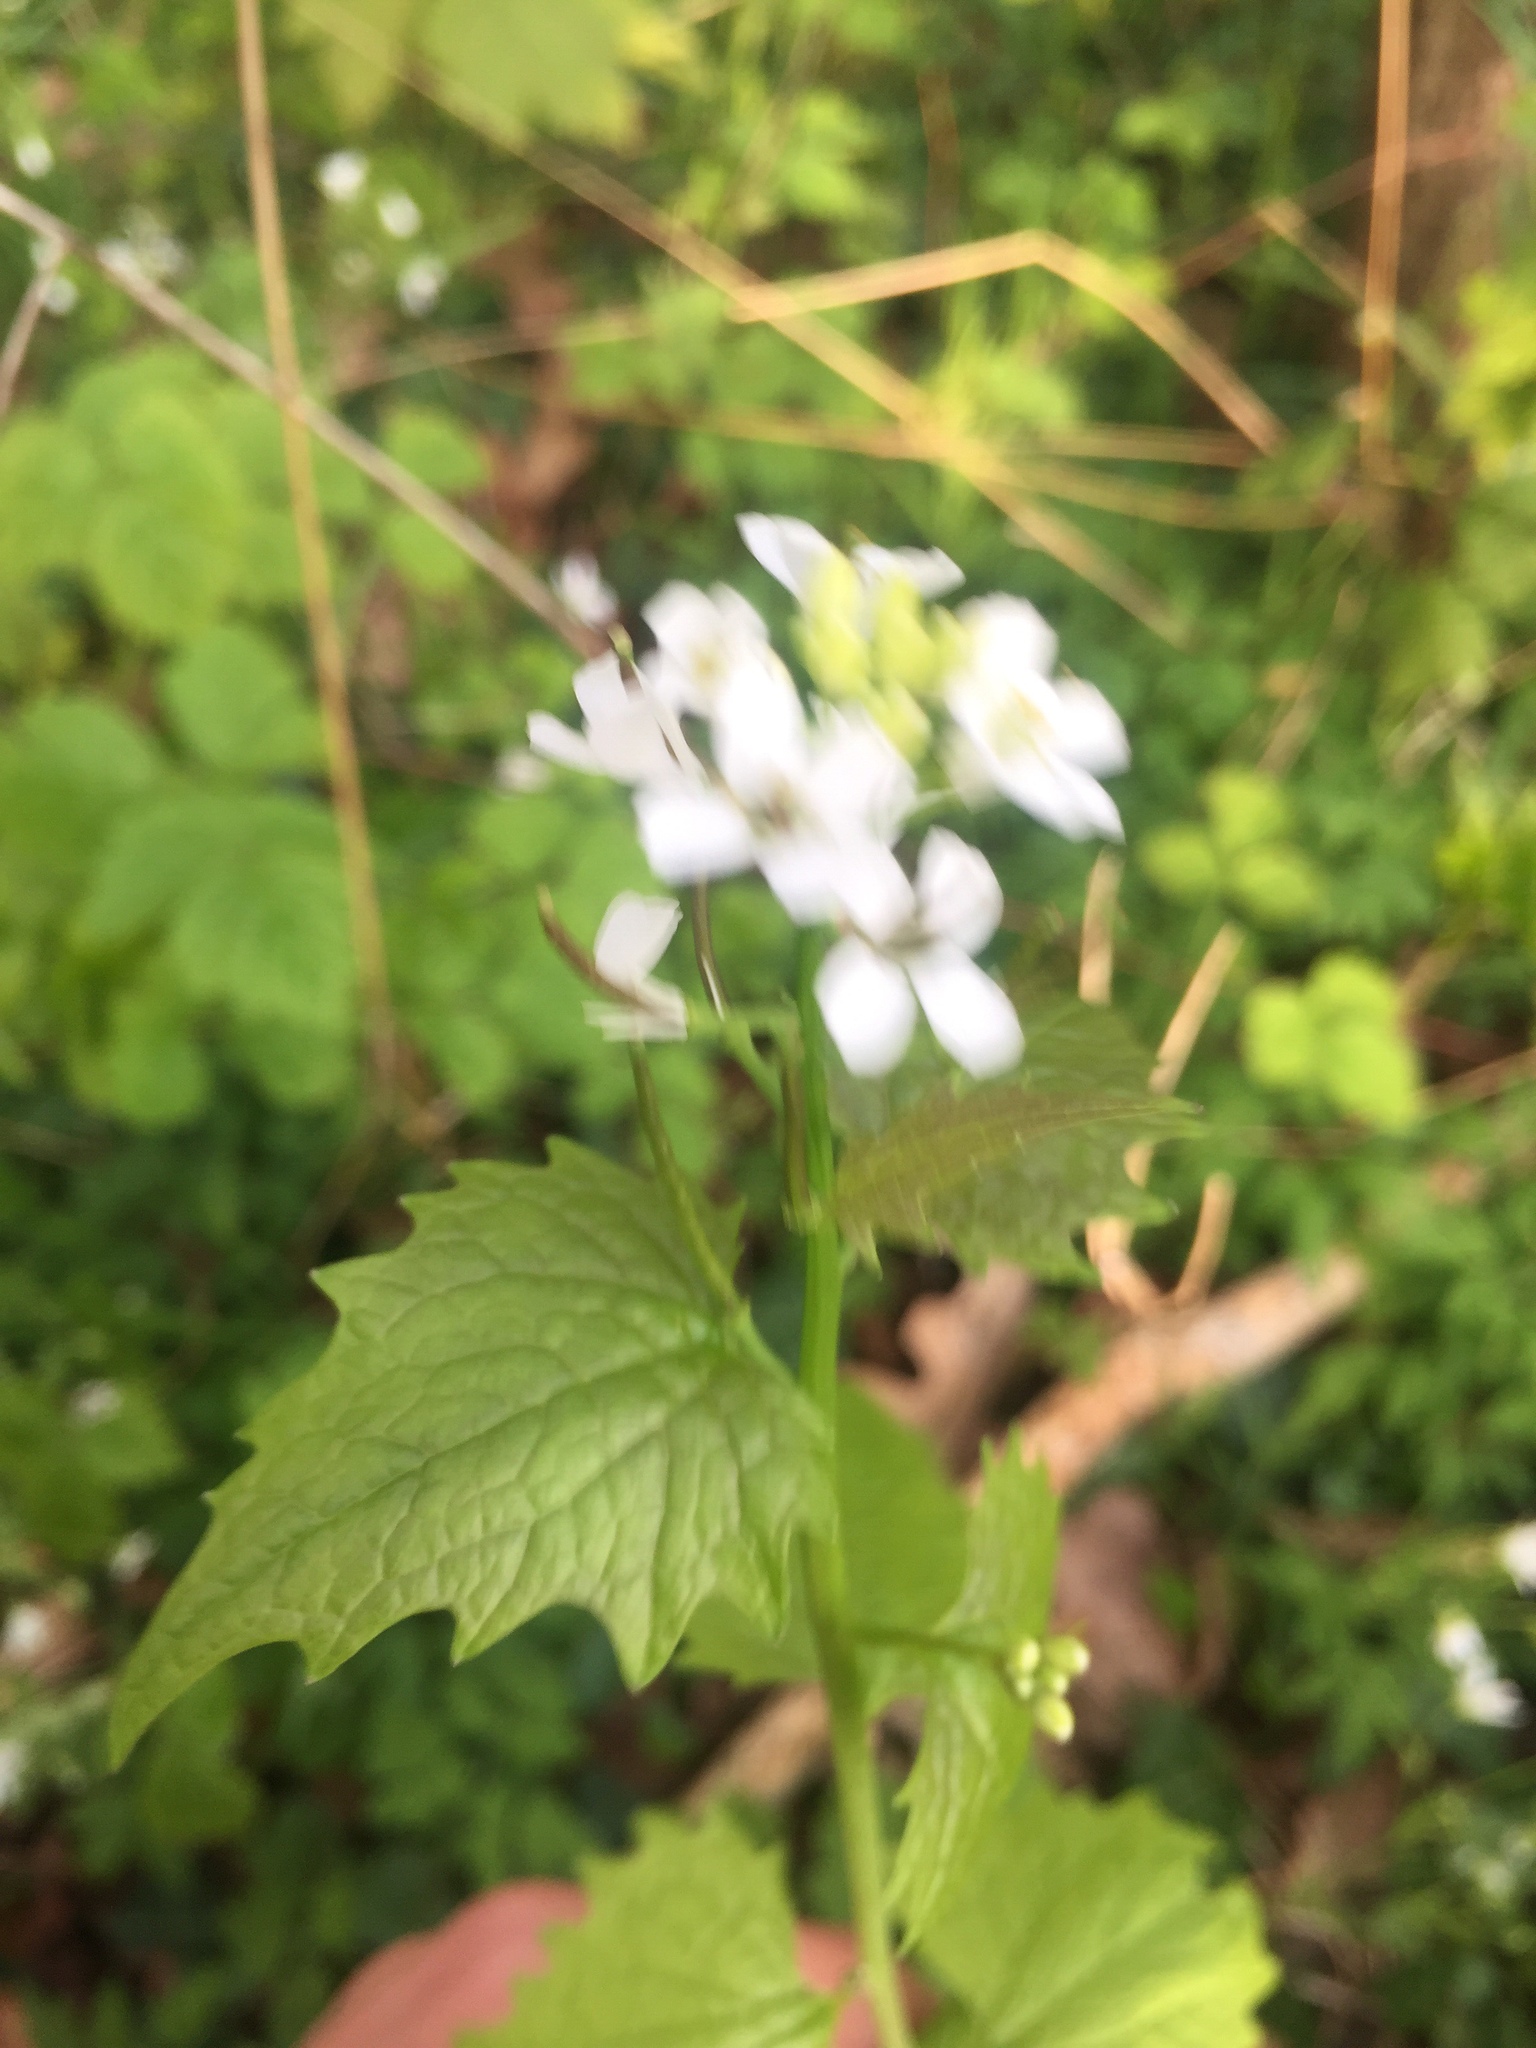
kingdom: Plantae
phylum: Tracheophyta
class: Magnoliopsida
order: Brassicales
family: Brassicaceae
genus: Alliaria
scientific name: Alliaria petiolata
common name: Garlic mustard
